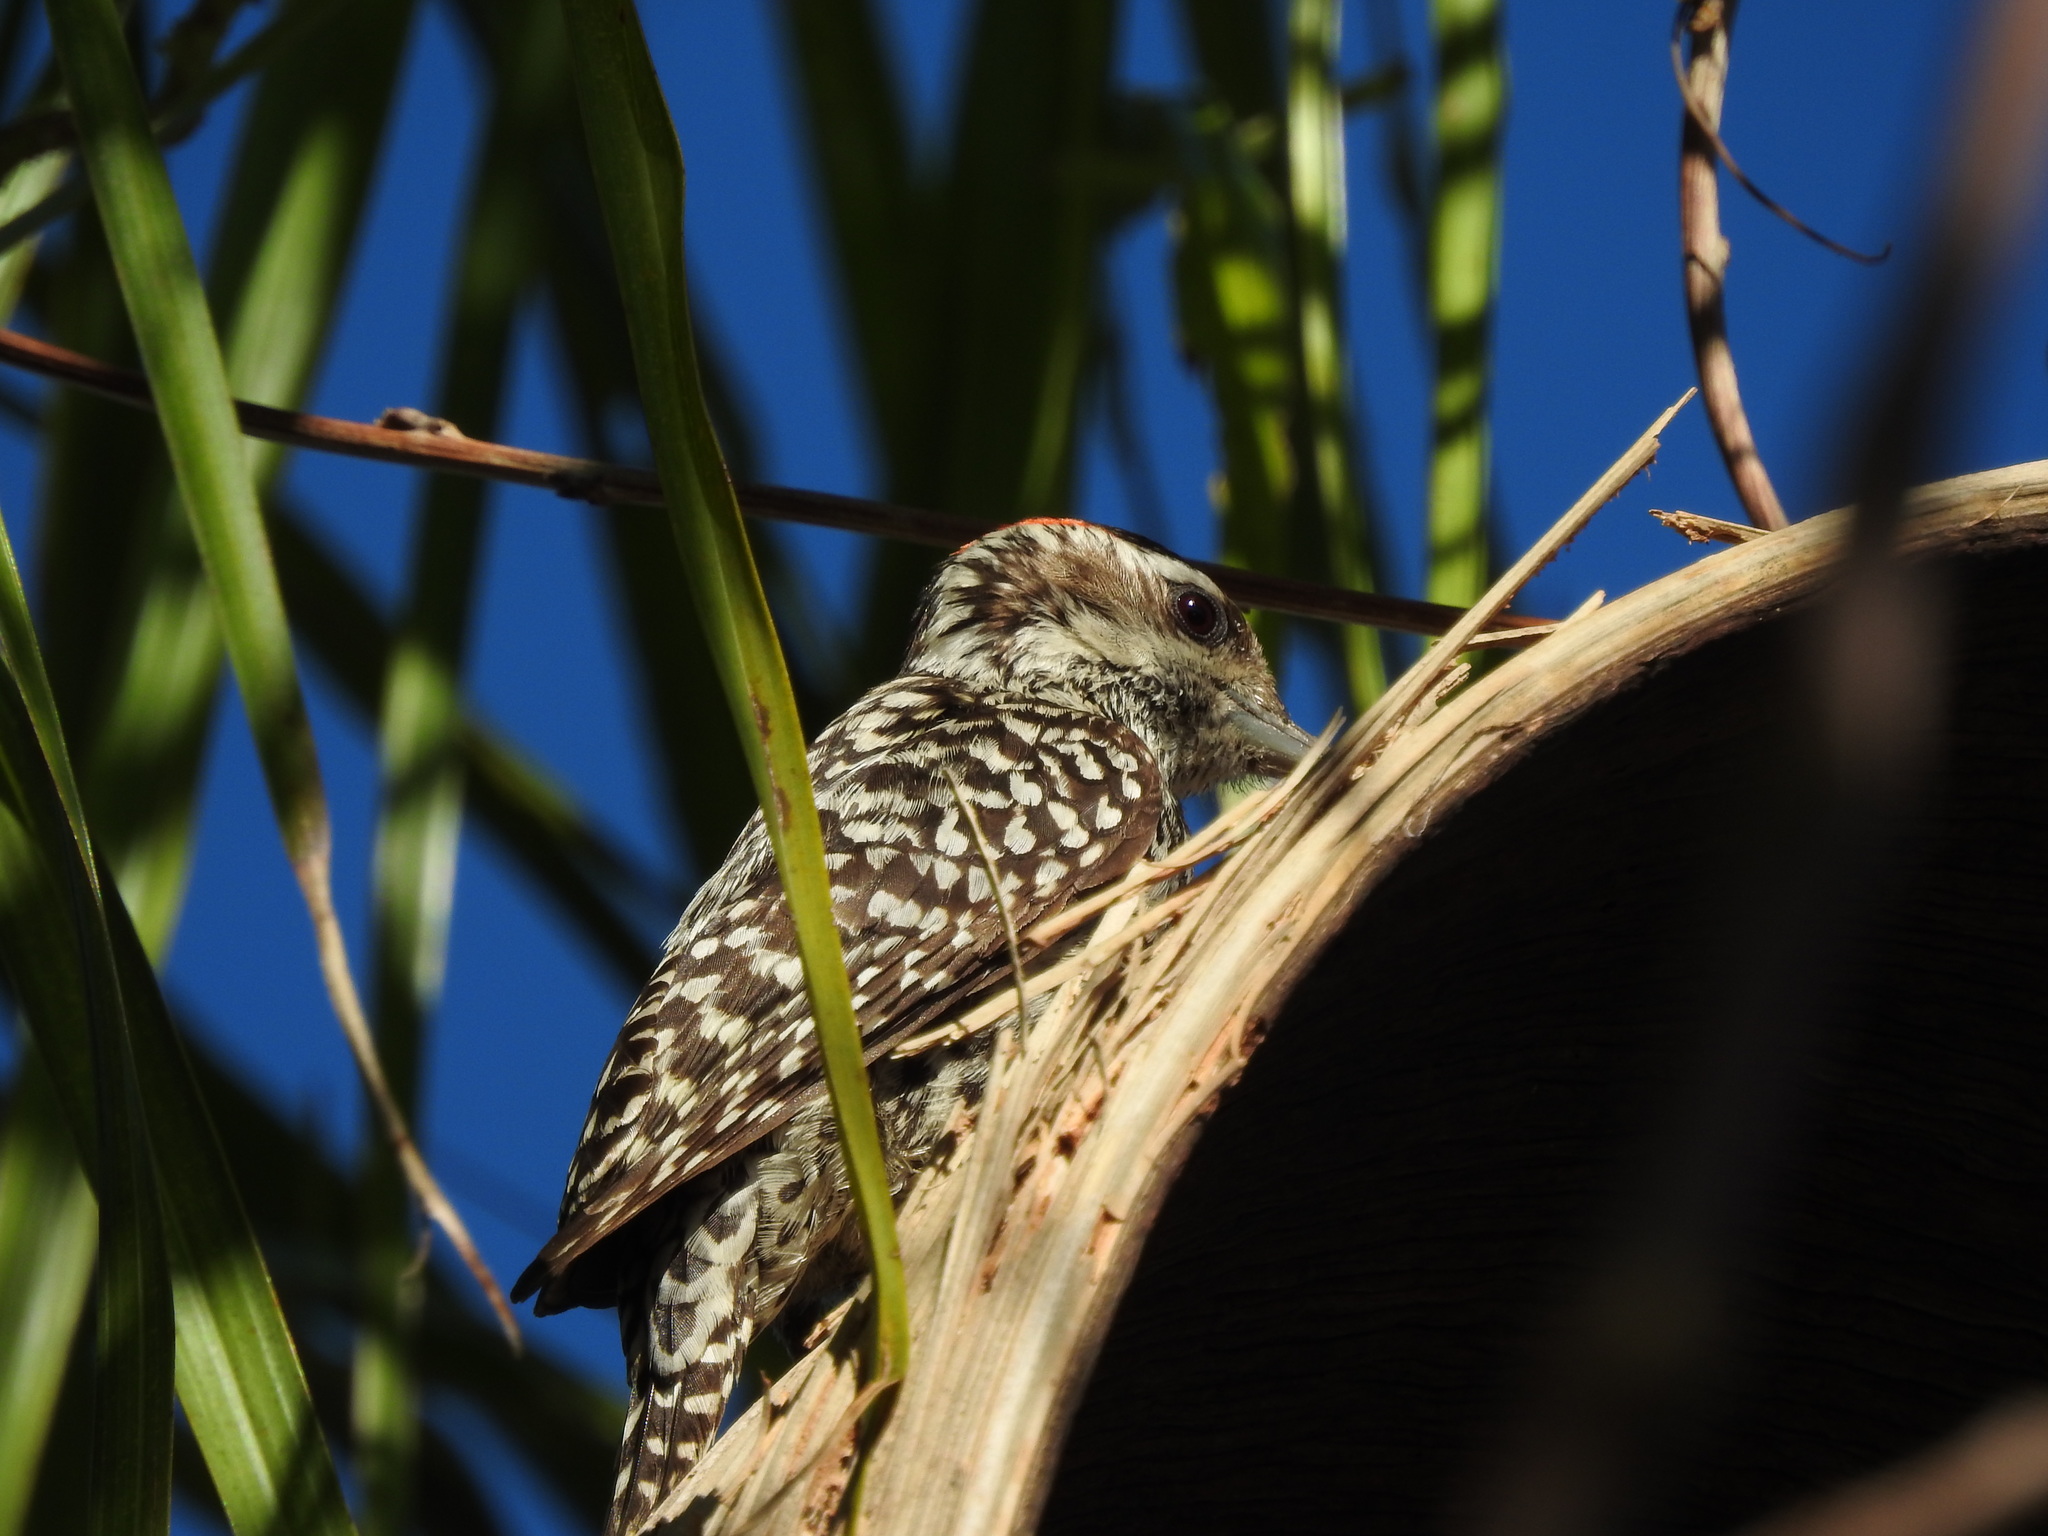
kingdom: Animalia
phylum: Chordata
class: Aves
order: Piciformes
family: Picidae
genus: Veniliornis
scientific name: Veniliornis mixtus
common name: Checkered woodpecker
